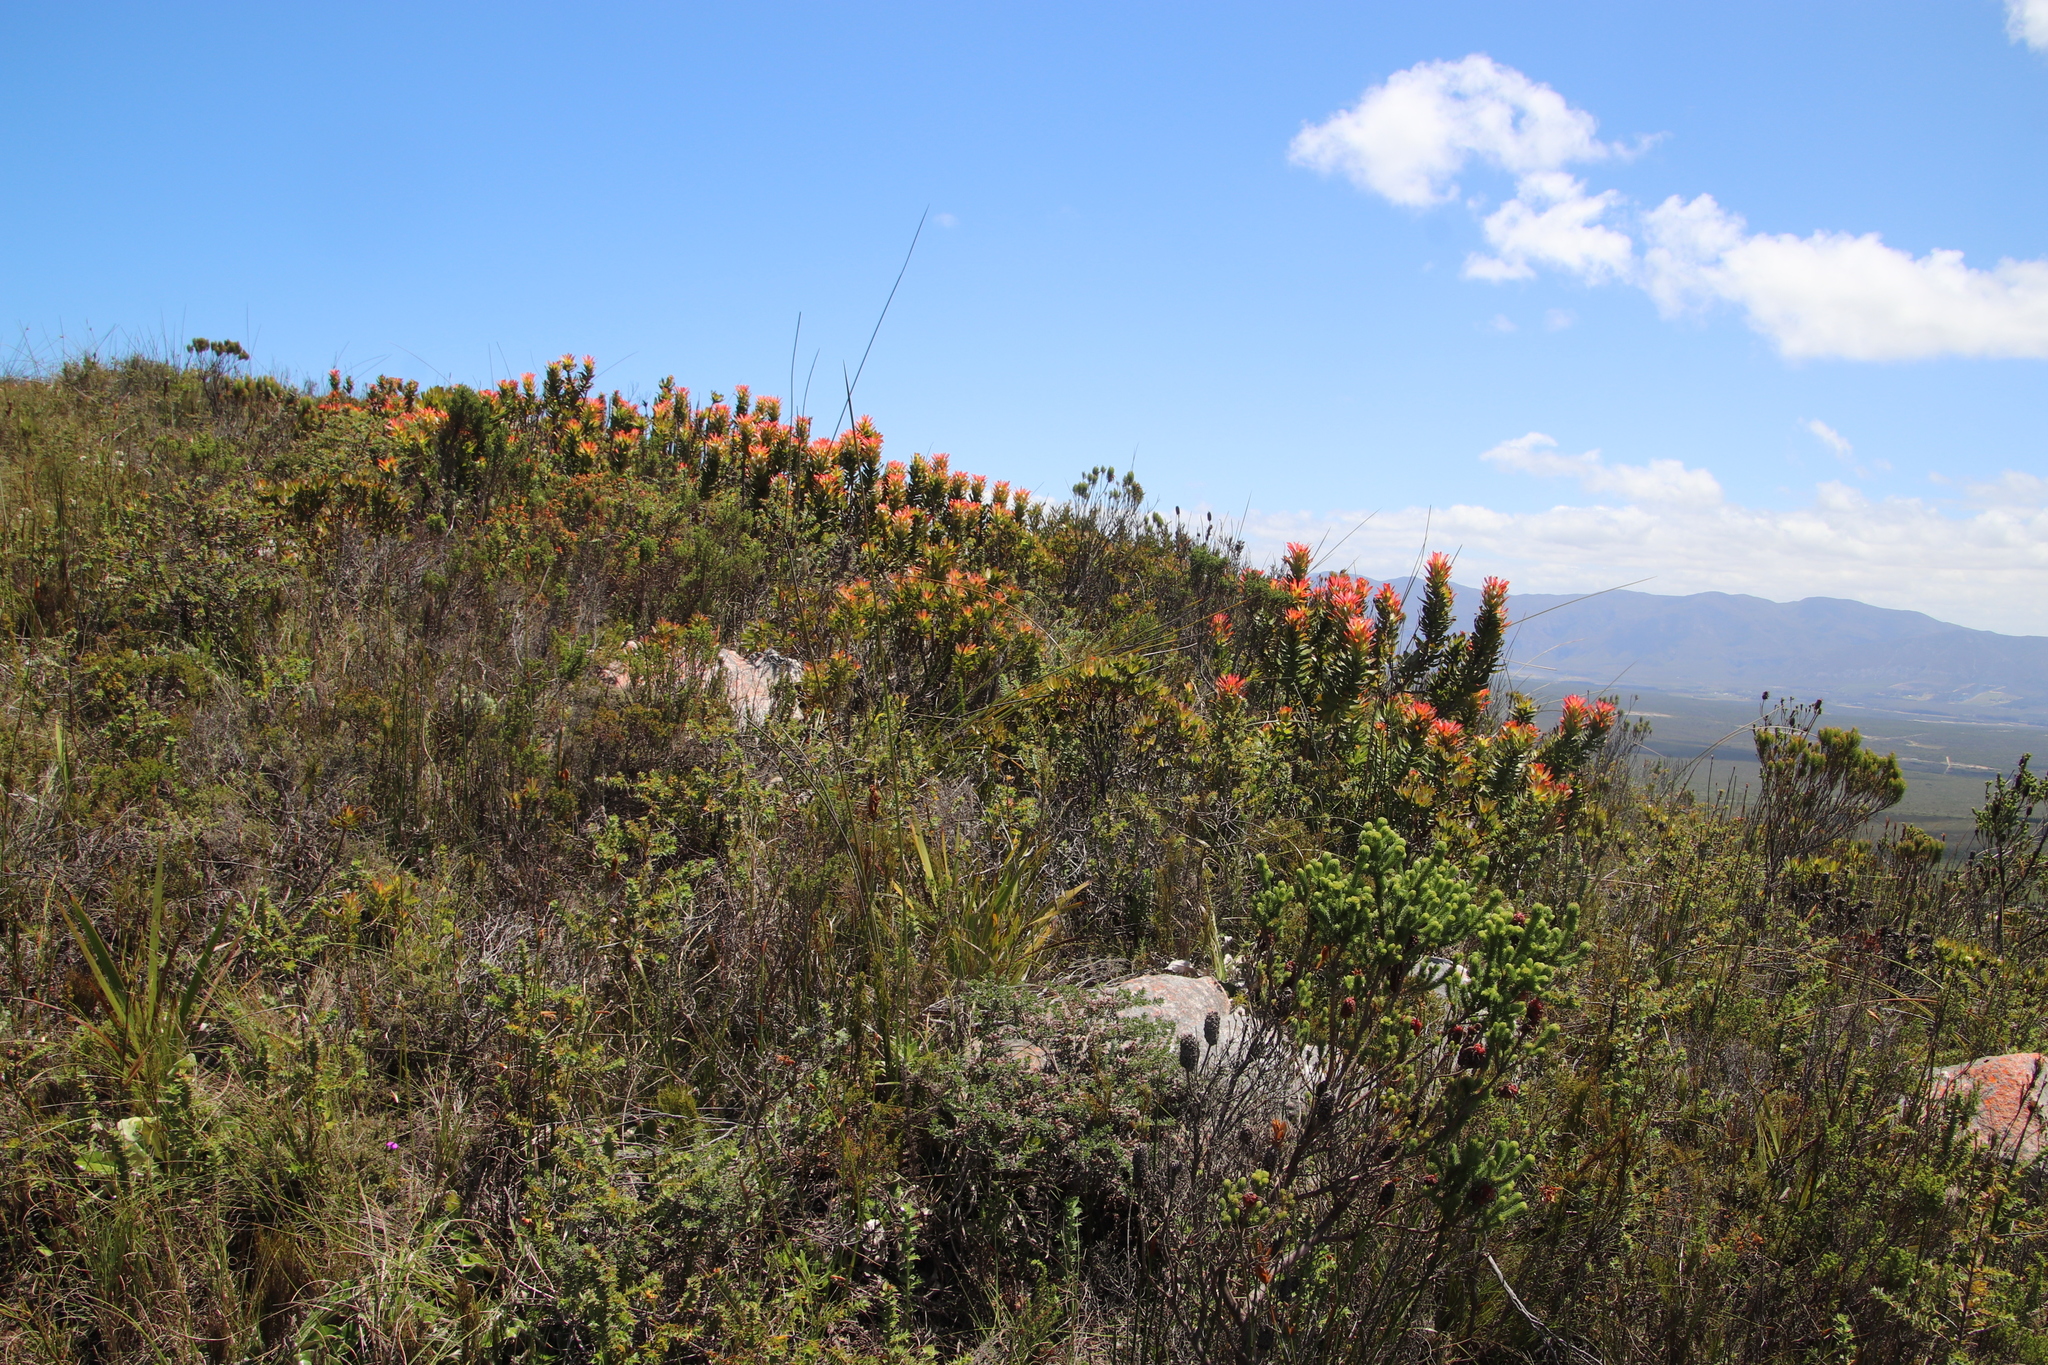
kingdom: Plantae
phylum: Tracheophyta
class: Magnoliopsida
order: Proteales
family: Proteaceae
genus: Mimetes
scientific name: Mimetes cucullatus
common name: Common pagoda
